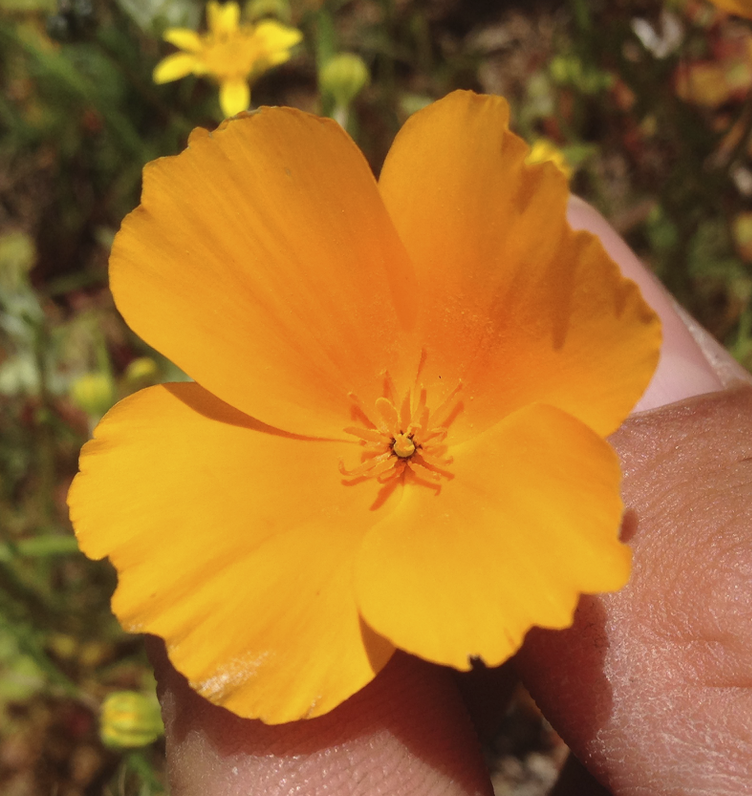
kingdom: Plantae
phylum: Tracheophyta
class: Magnoliopsida
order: Ranunculales
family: Papaveraceae
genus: Eschscholzia
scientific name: Eschscholzia californica
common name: California poppy
